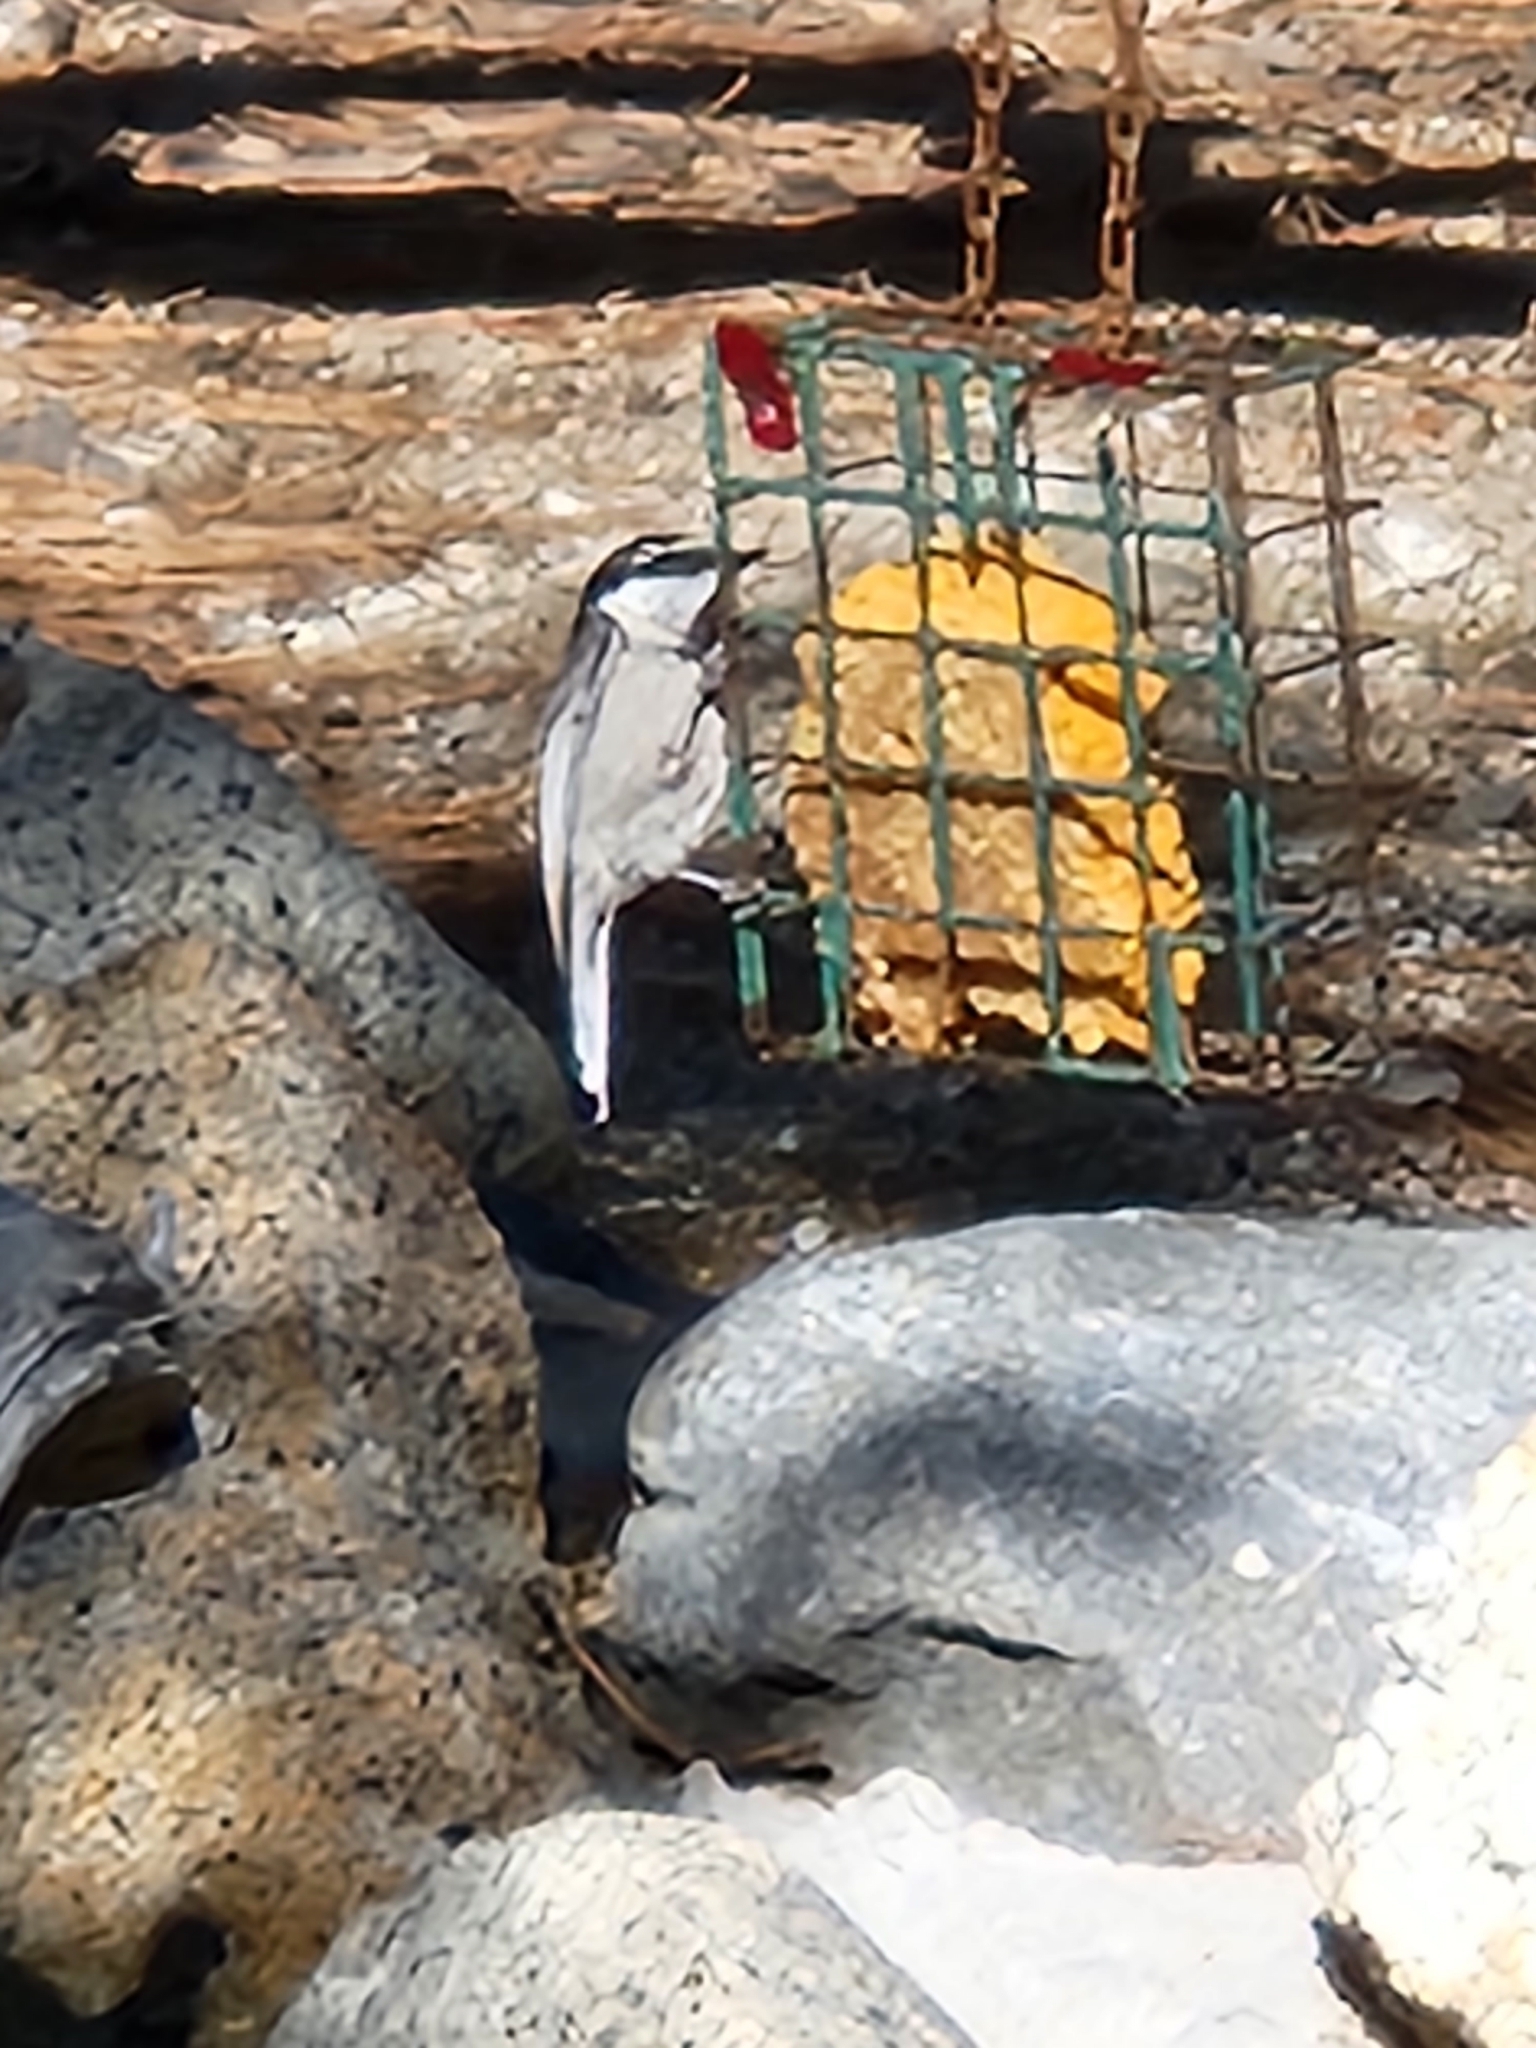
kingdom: Animalia
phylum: Chordata
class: Aves
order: Passeriformes
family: Paridae
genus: Poecile
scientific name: Poecile gambeli
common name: Mountain chickadee
